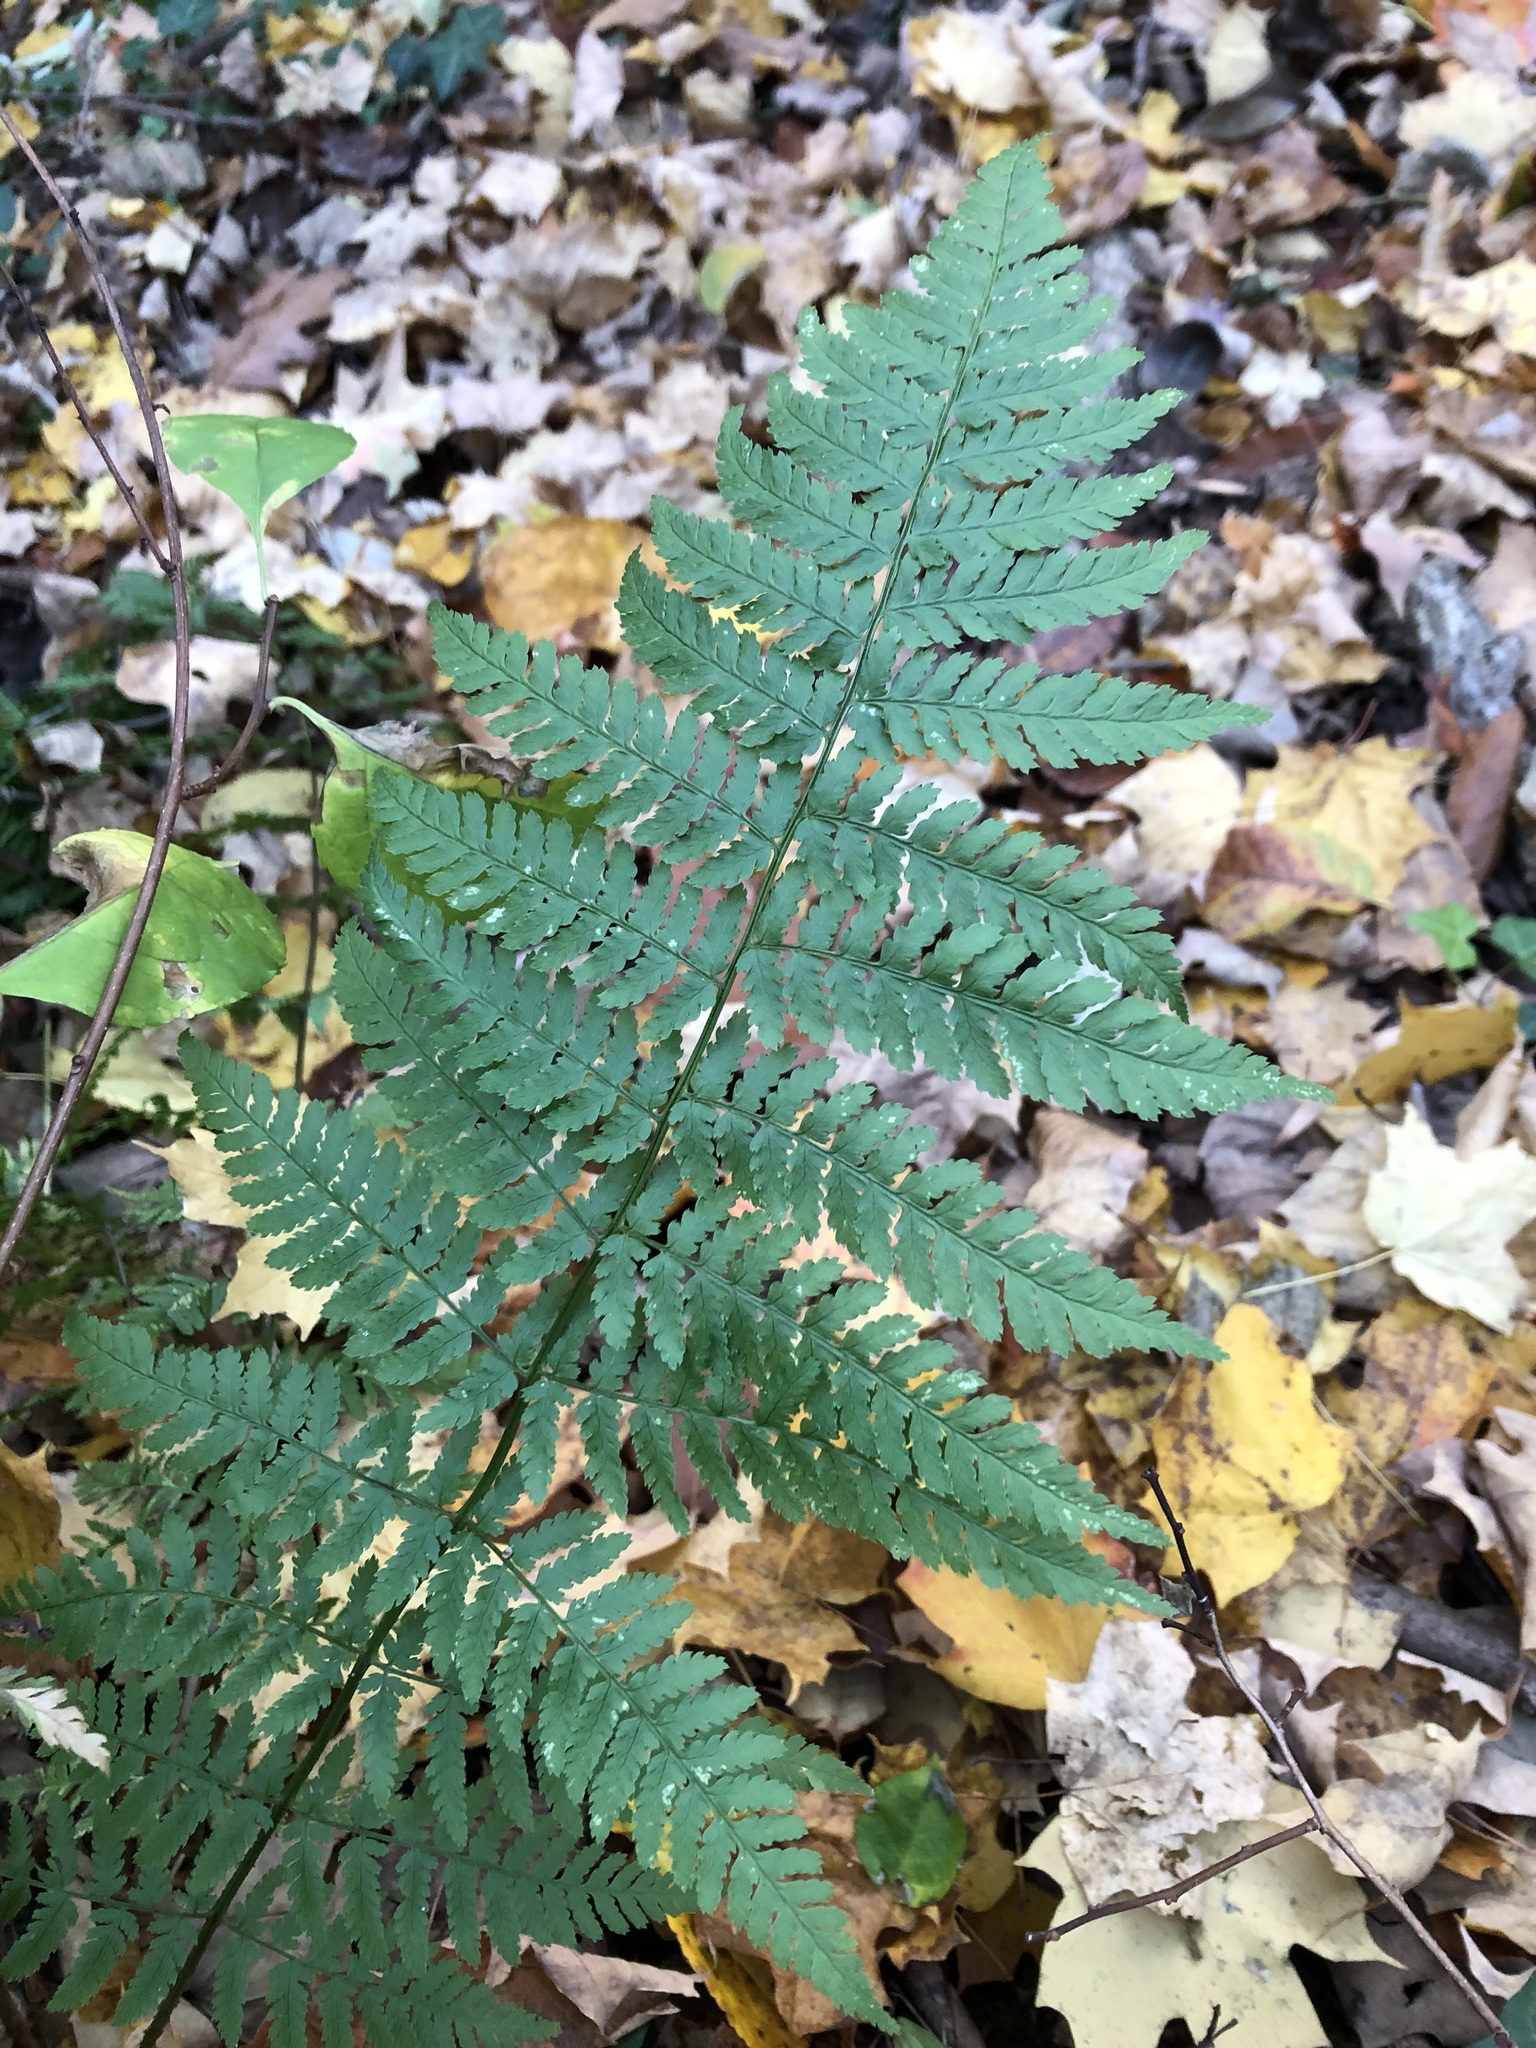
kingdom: Plantae
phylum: Tracheophyta
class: Polypodiopsida
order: Polypodiales
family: Dryopteridaceae
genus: Dryopteris
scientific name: Dryopteris intermedia
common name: Evergreen wood fern
